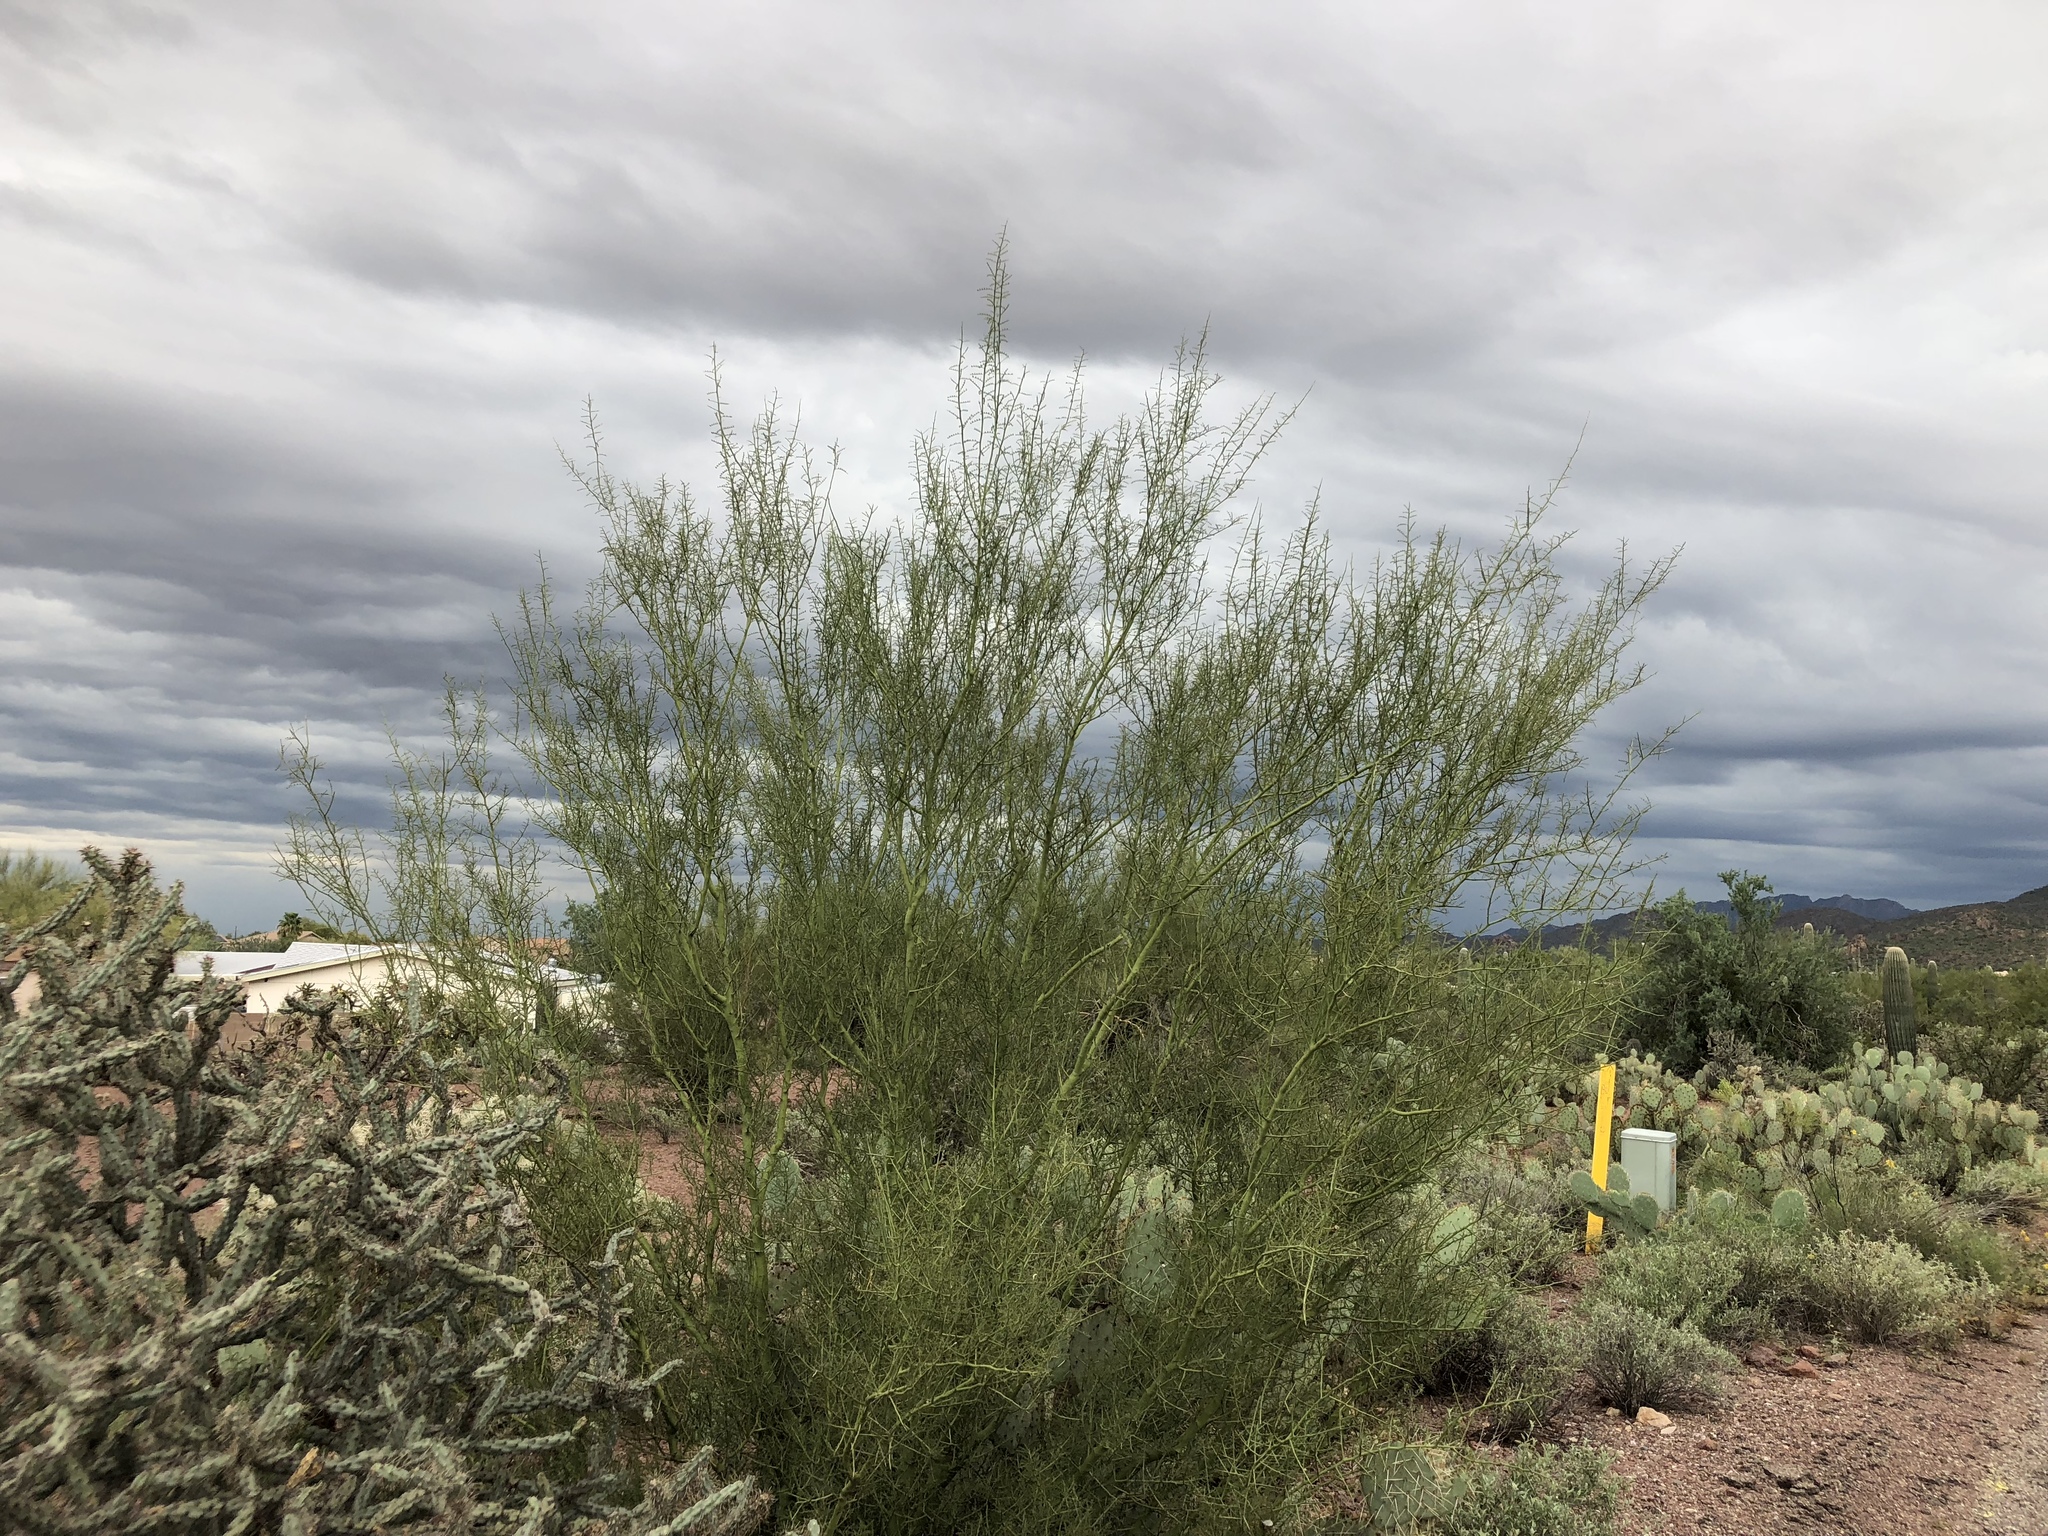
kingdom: Plantae
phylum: Tracheophyta
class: Magnoliopsida
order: Fabales
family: Fabaceae
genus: Parkinsonia
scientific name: Parkinsonia microphylla
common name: Yellow paloverde
